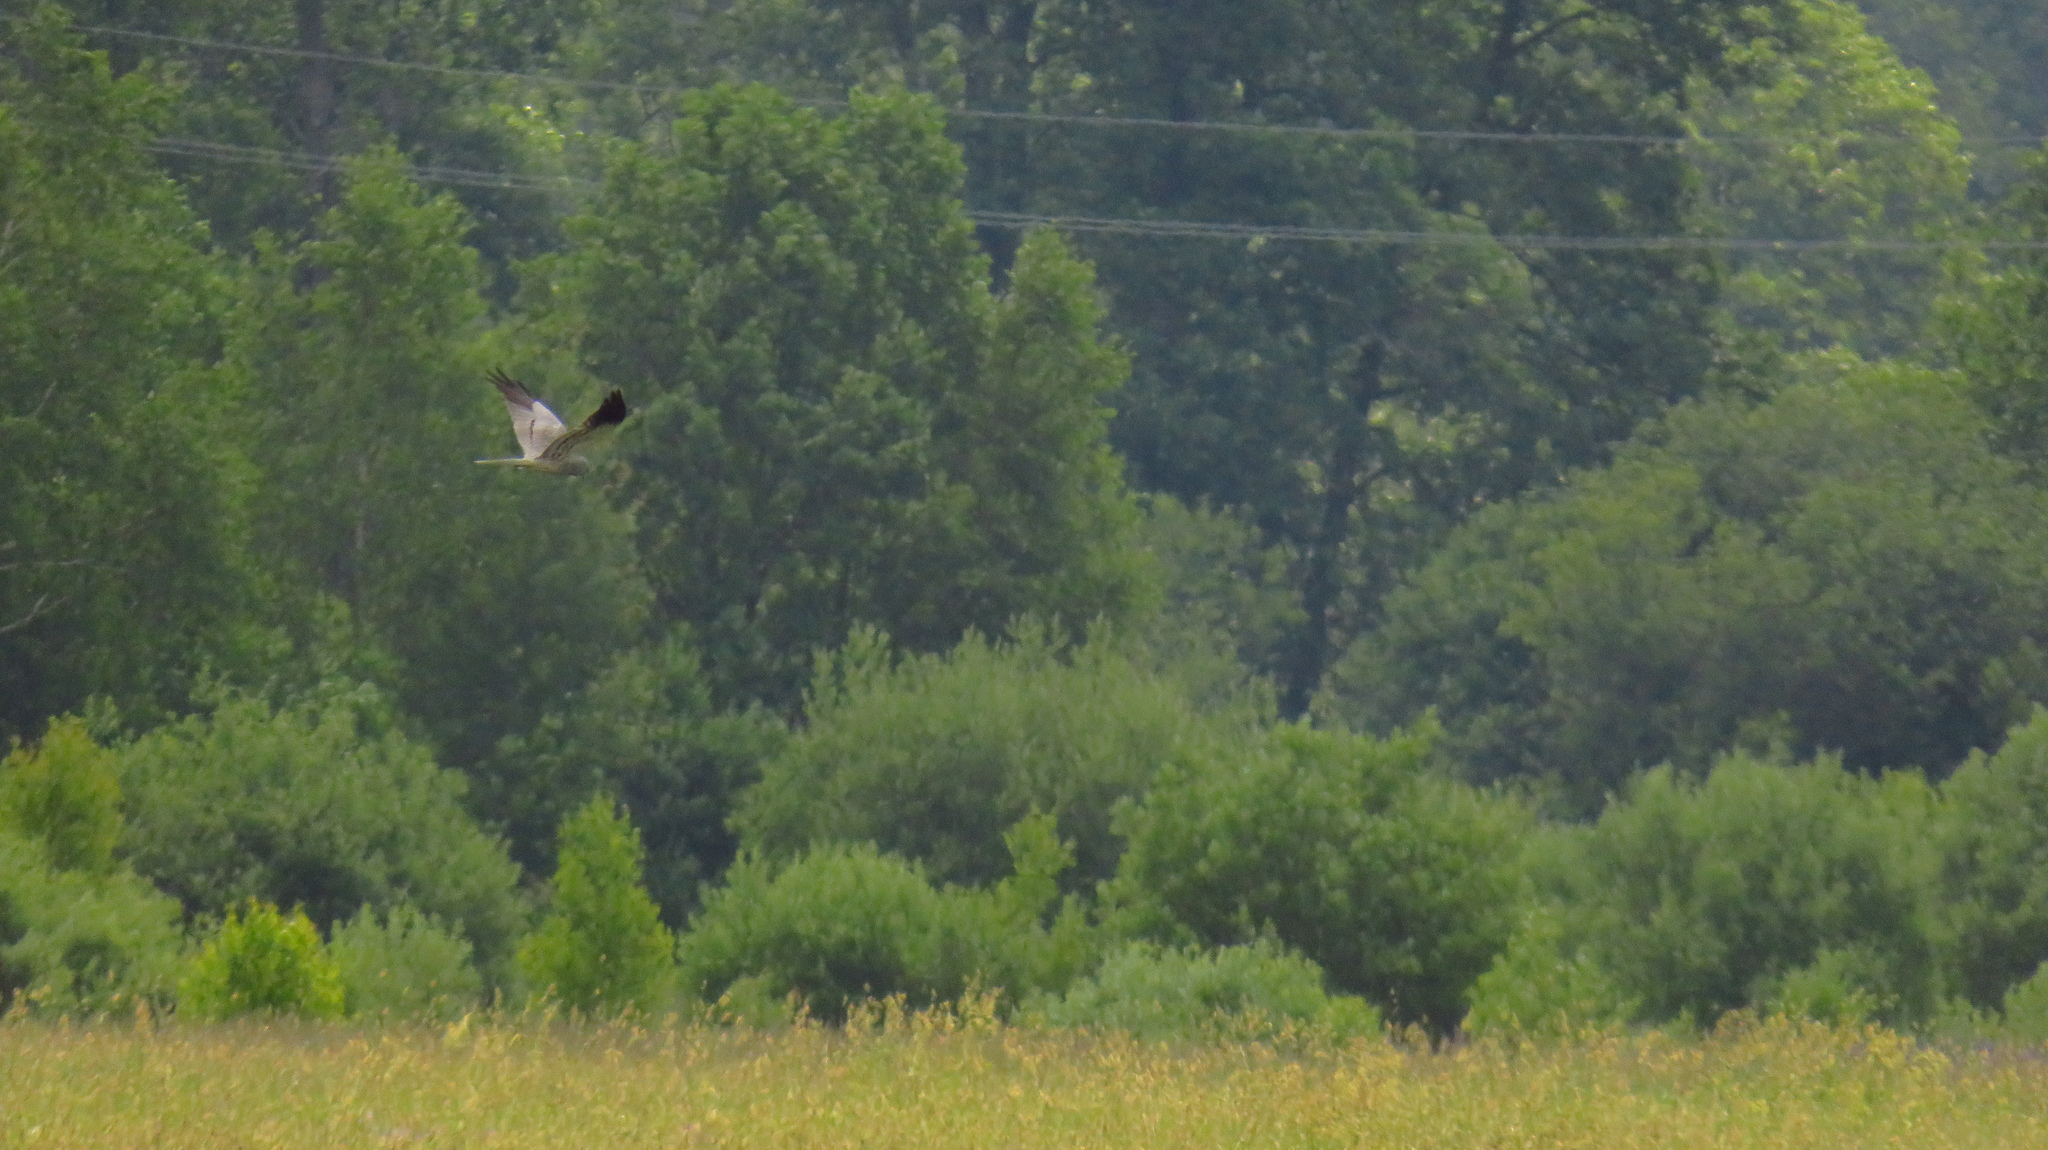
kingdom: Animalia
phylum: Chordata
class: Aves
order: Accipitriformes
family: Accipitridae
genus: Circus
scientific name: Circus pygargus
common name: Montagu's harrier
